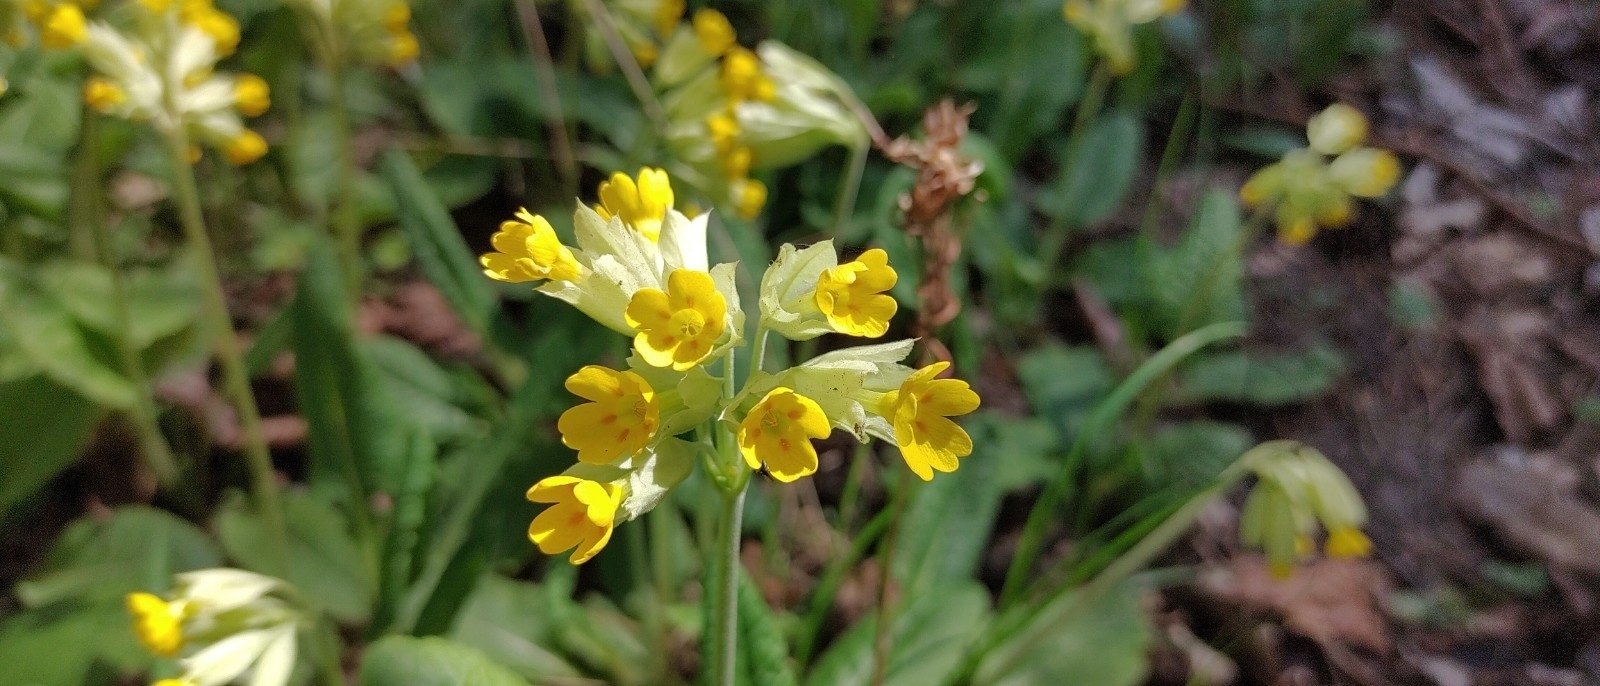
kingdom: Plantae
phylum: Tracheophyta
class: Magnoliopsida
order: Ericales
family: Primulaceae
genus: Primula
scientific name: Primula veris
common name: Cowslip
